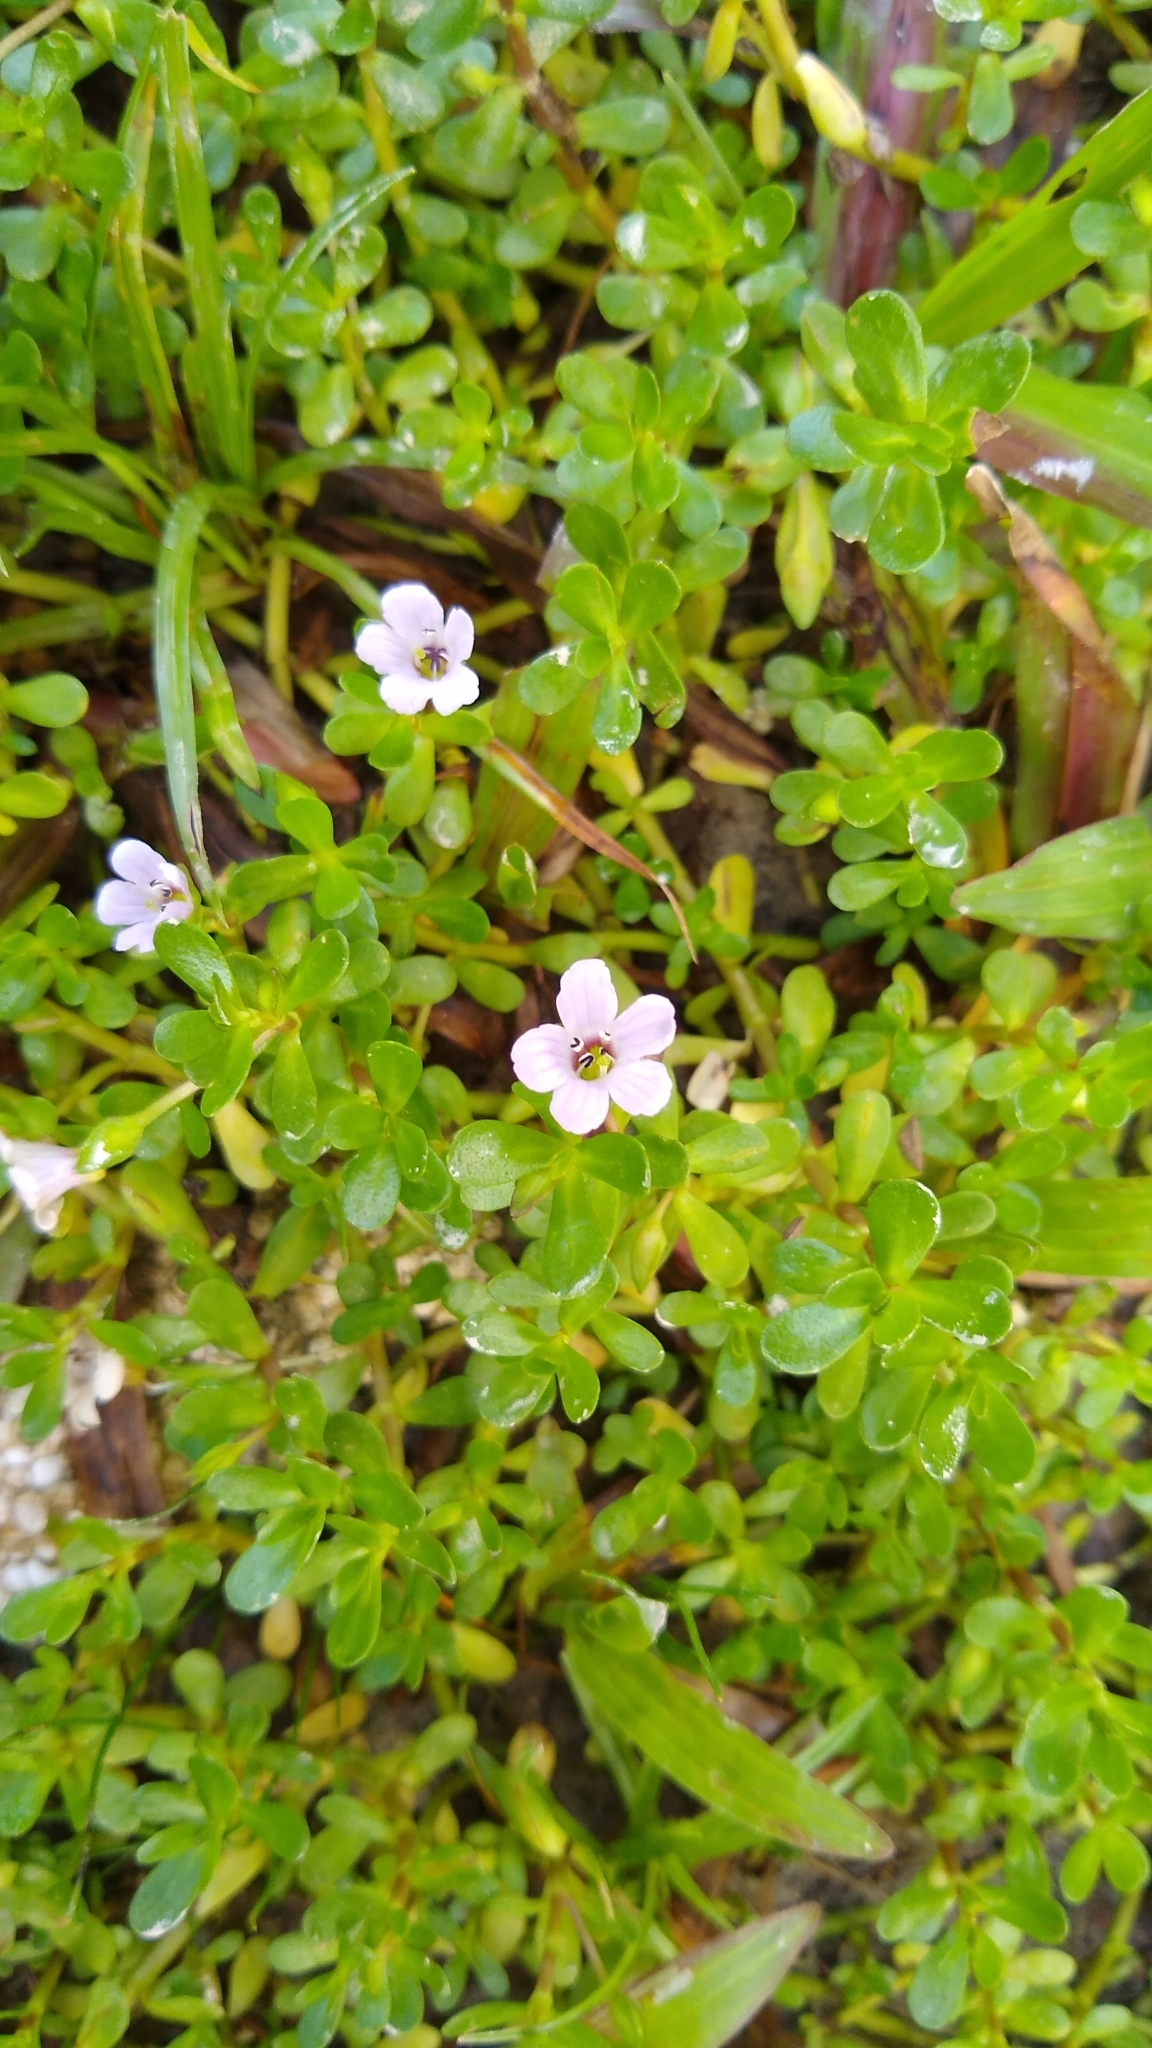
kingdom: Plantae
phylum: Tracheophyta
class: Magnoliopsida
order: Lamiales
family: Plantaginaceae
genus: Bacopa
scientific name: Bacopa monnieri
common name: Indian-pennywort
